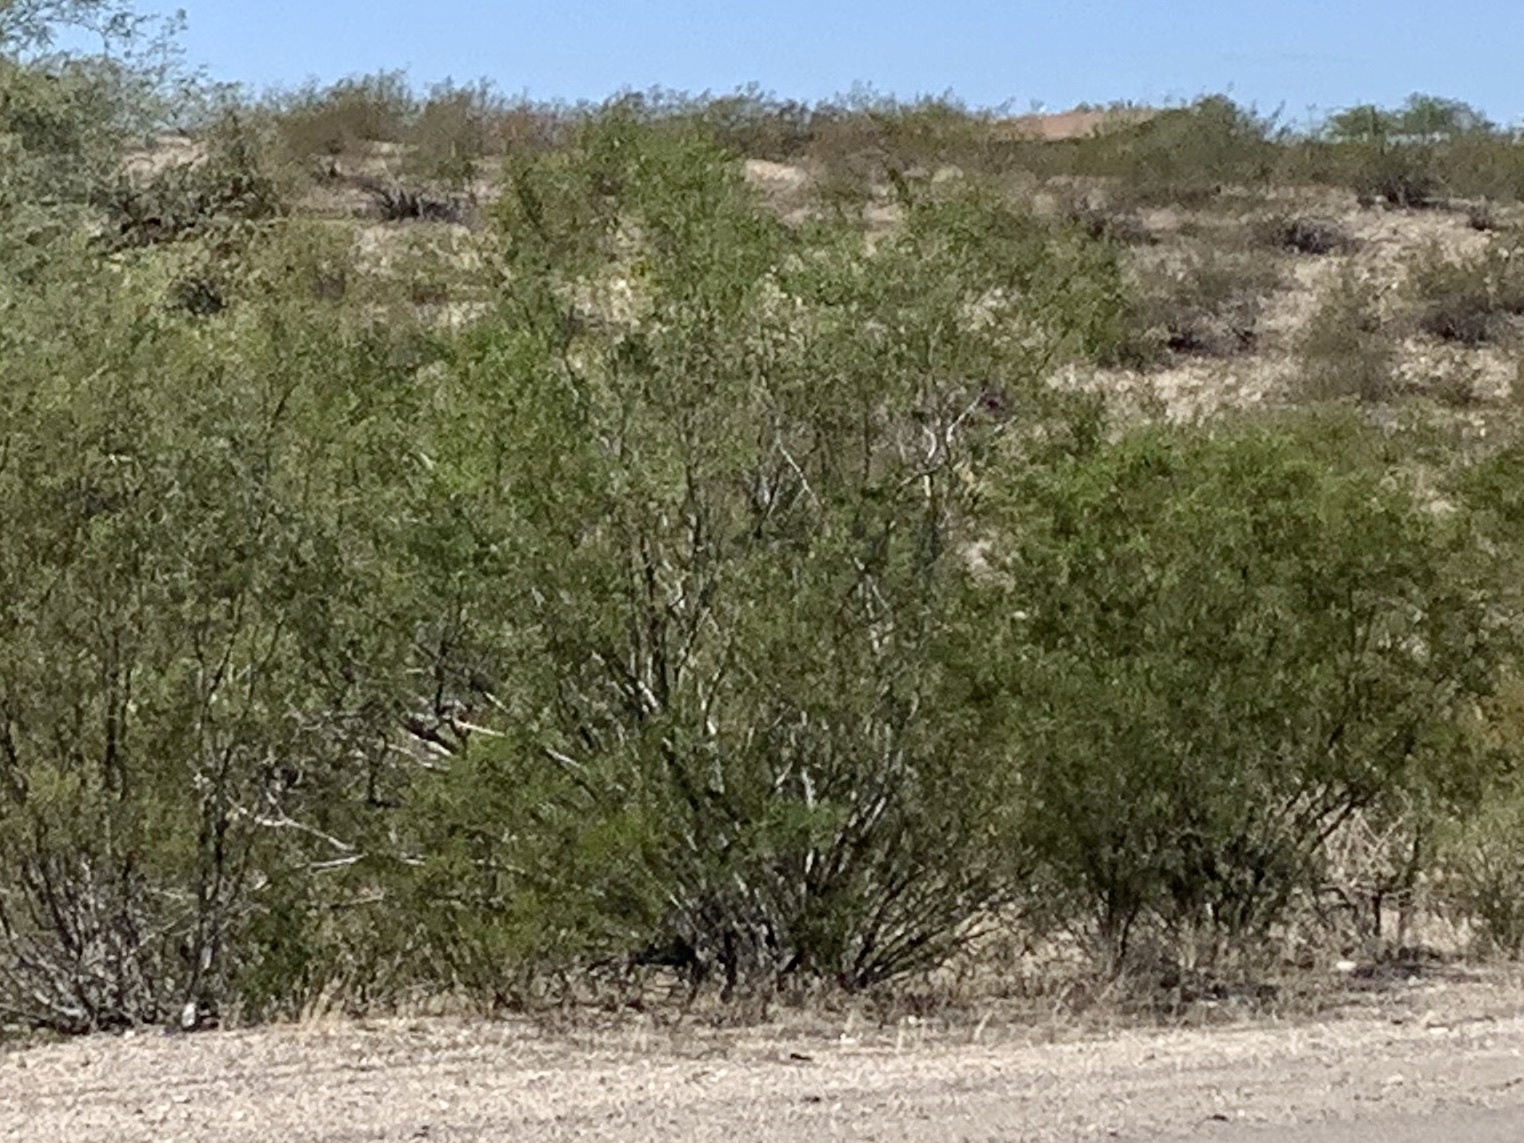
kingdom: Plantae
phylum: Tracheophyta
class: Magnoliopsida
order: Zygophyllales
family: Zygophyllaceae
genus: Larrea
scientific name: Larrea tridentata
